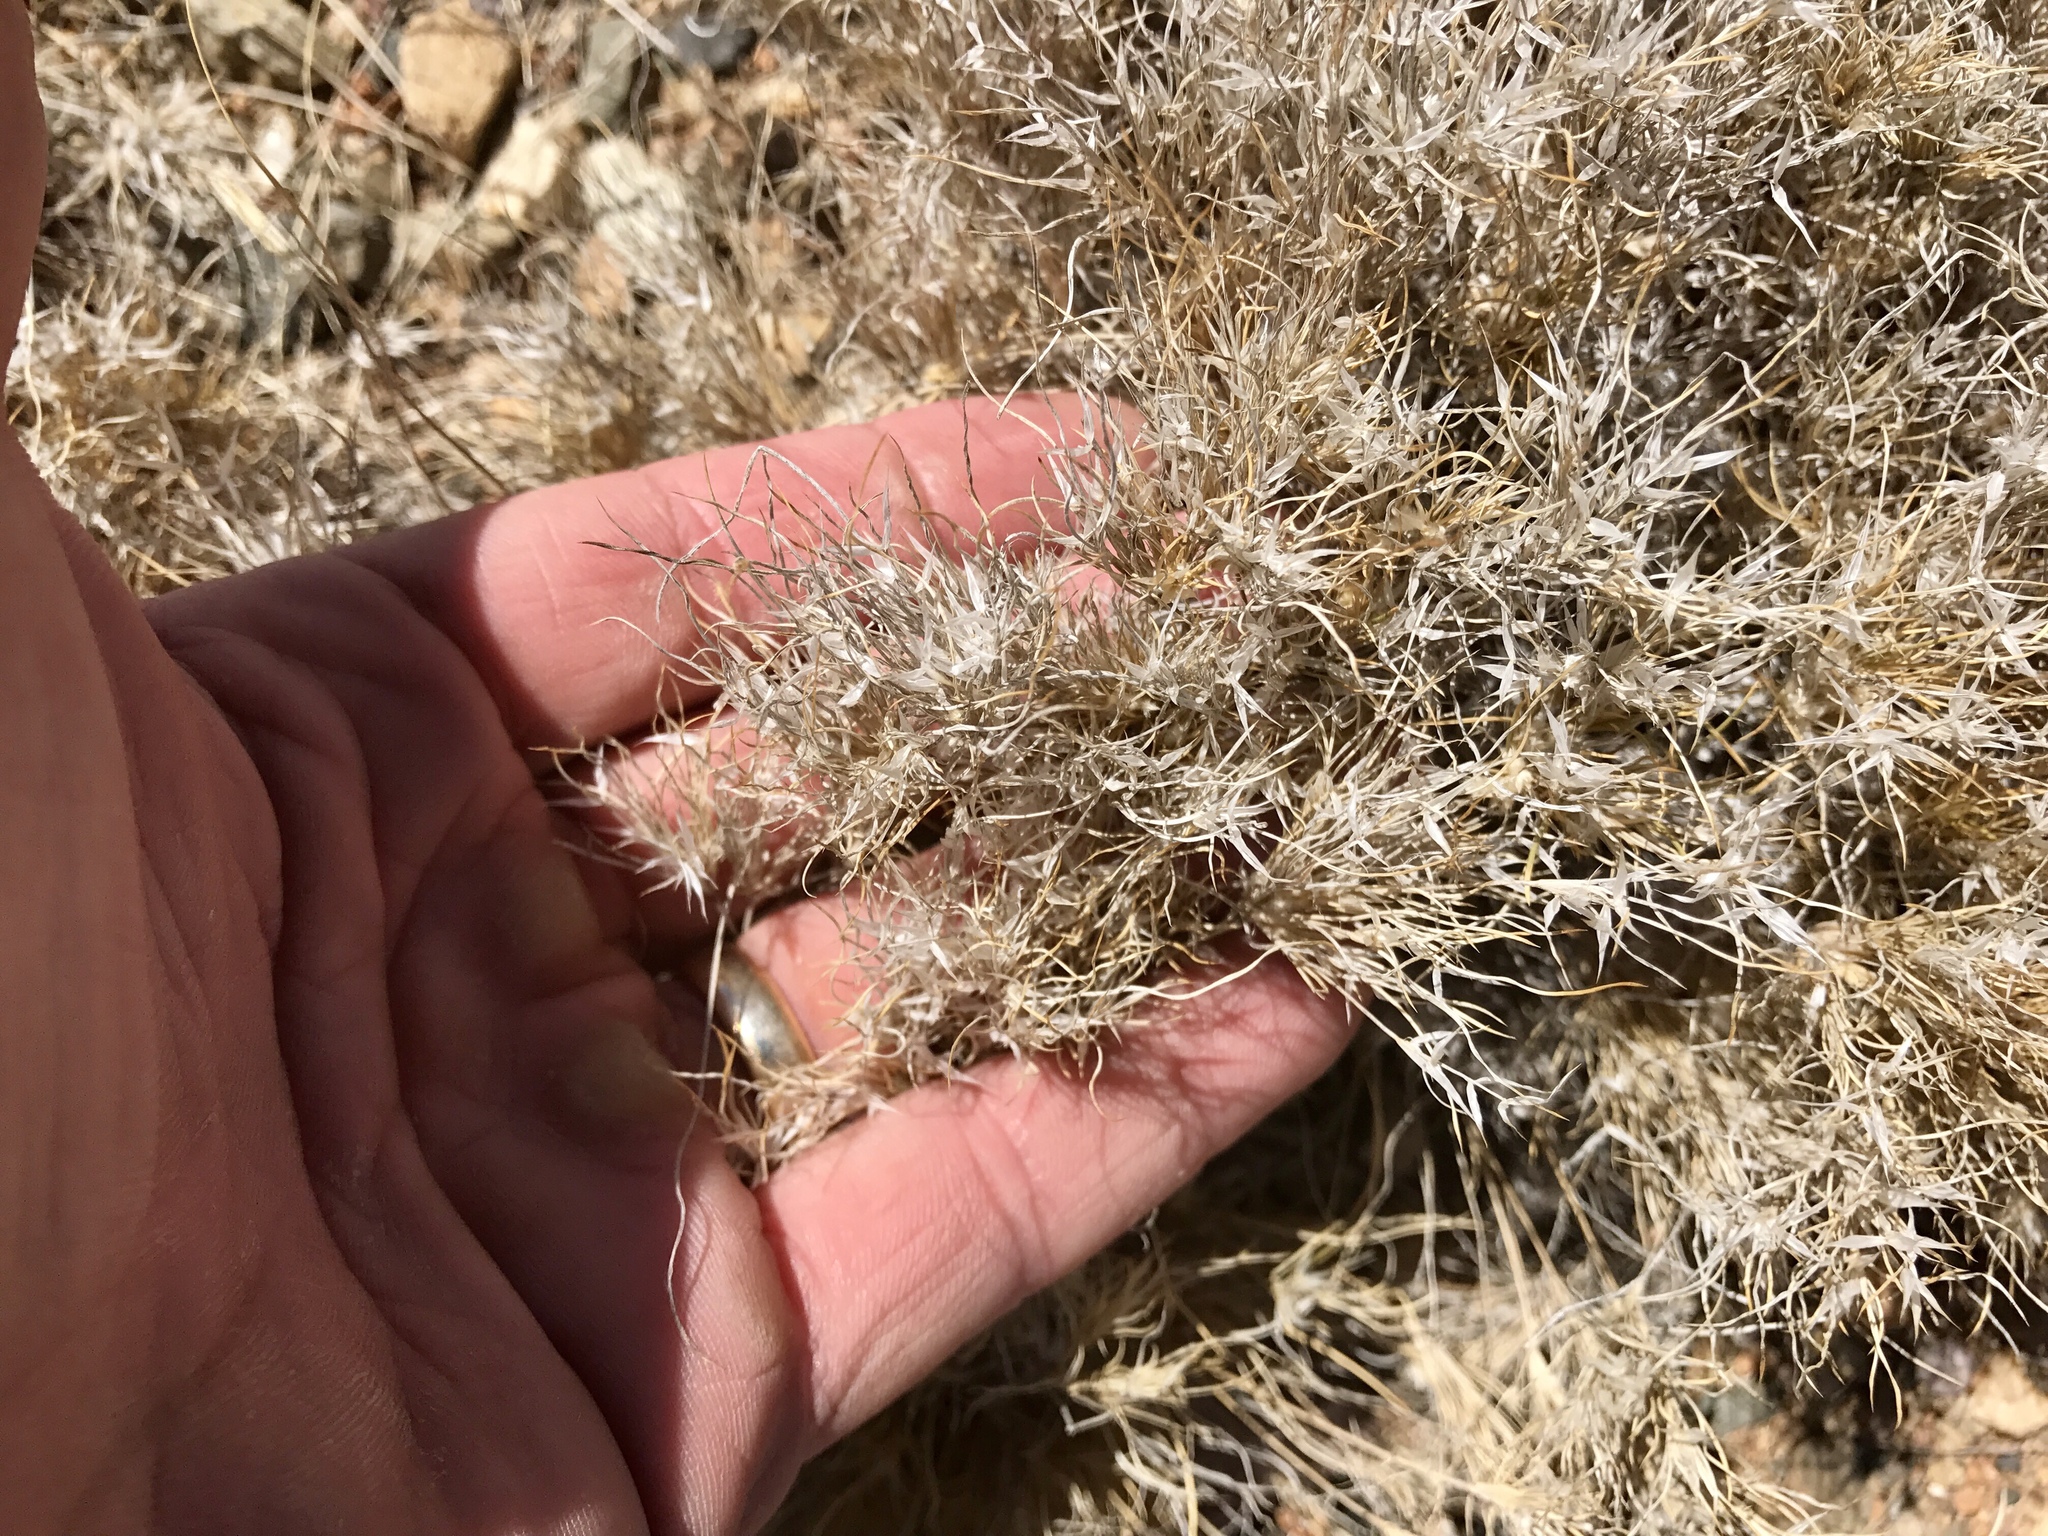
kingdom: Plantae
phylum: Tracheophyta
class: Liliopsida
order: Poales
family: Poaceae
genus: Dasyochloa
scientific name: Dasyochloa pulchella
